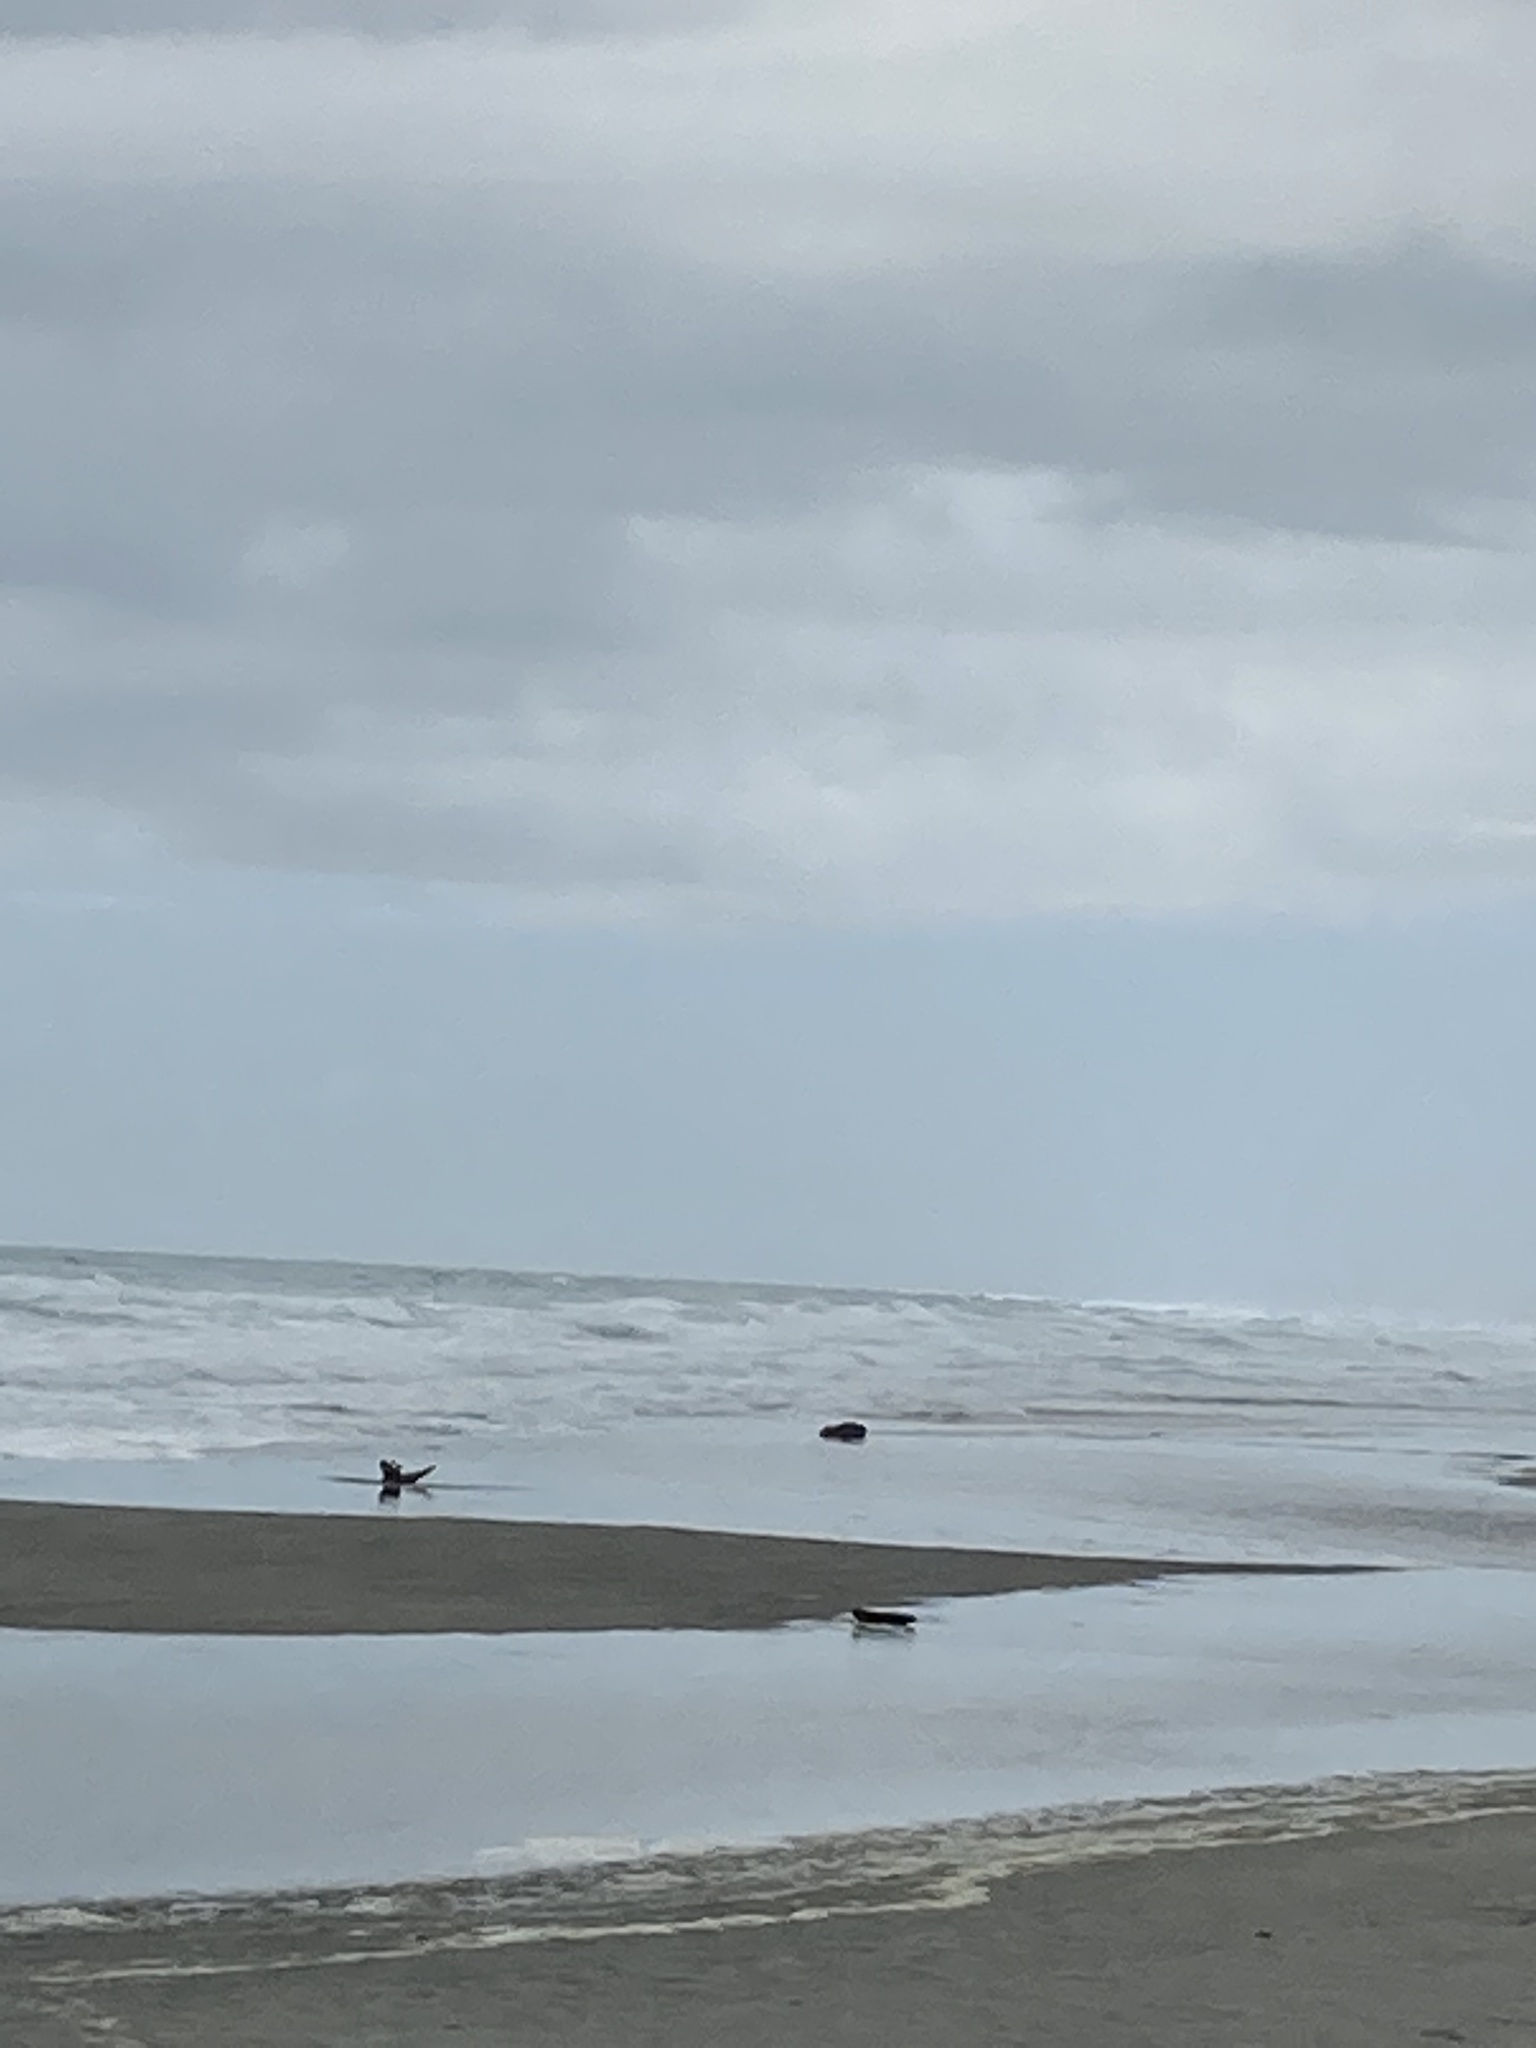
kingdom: Animalia
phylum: Chordata
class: Mammalia
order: Carnivora
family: Otariidae
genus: Arctocephalus
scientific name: Arctocephalus forsteri
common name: New zealand fur seal
